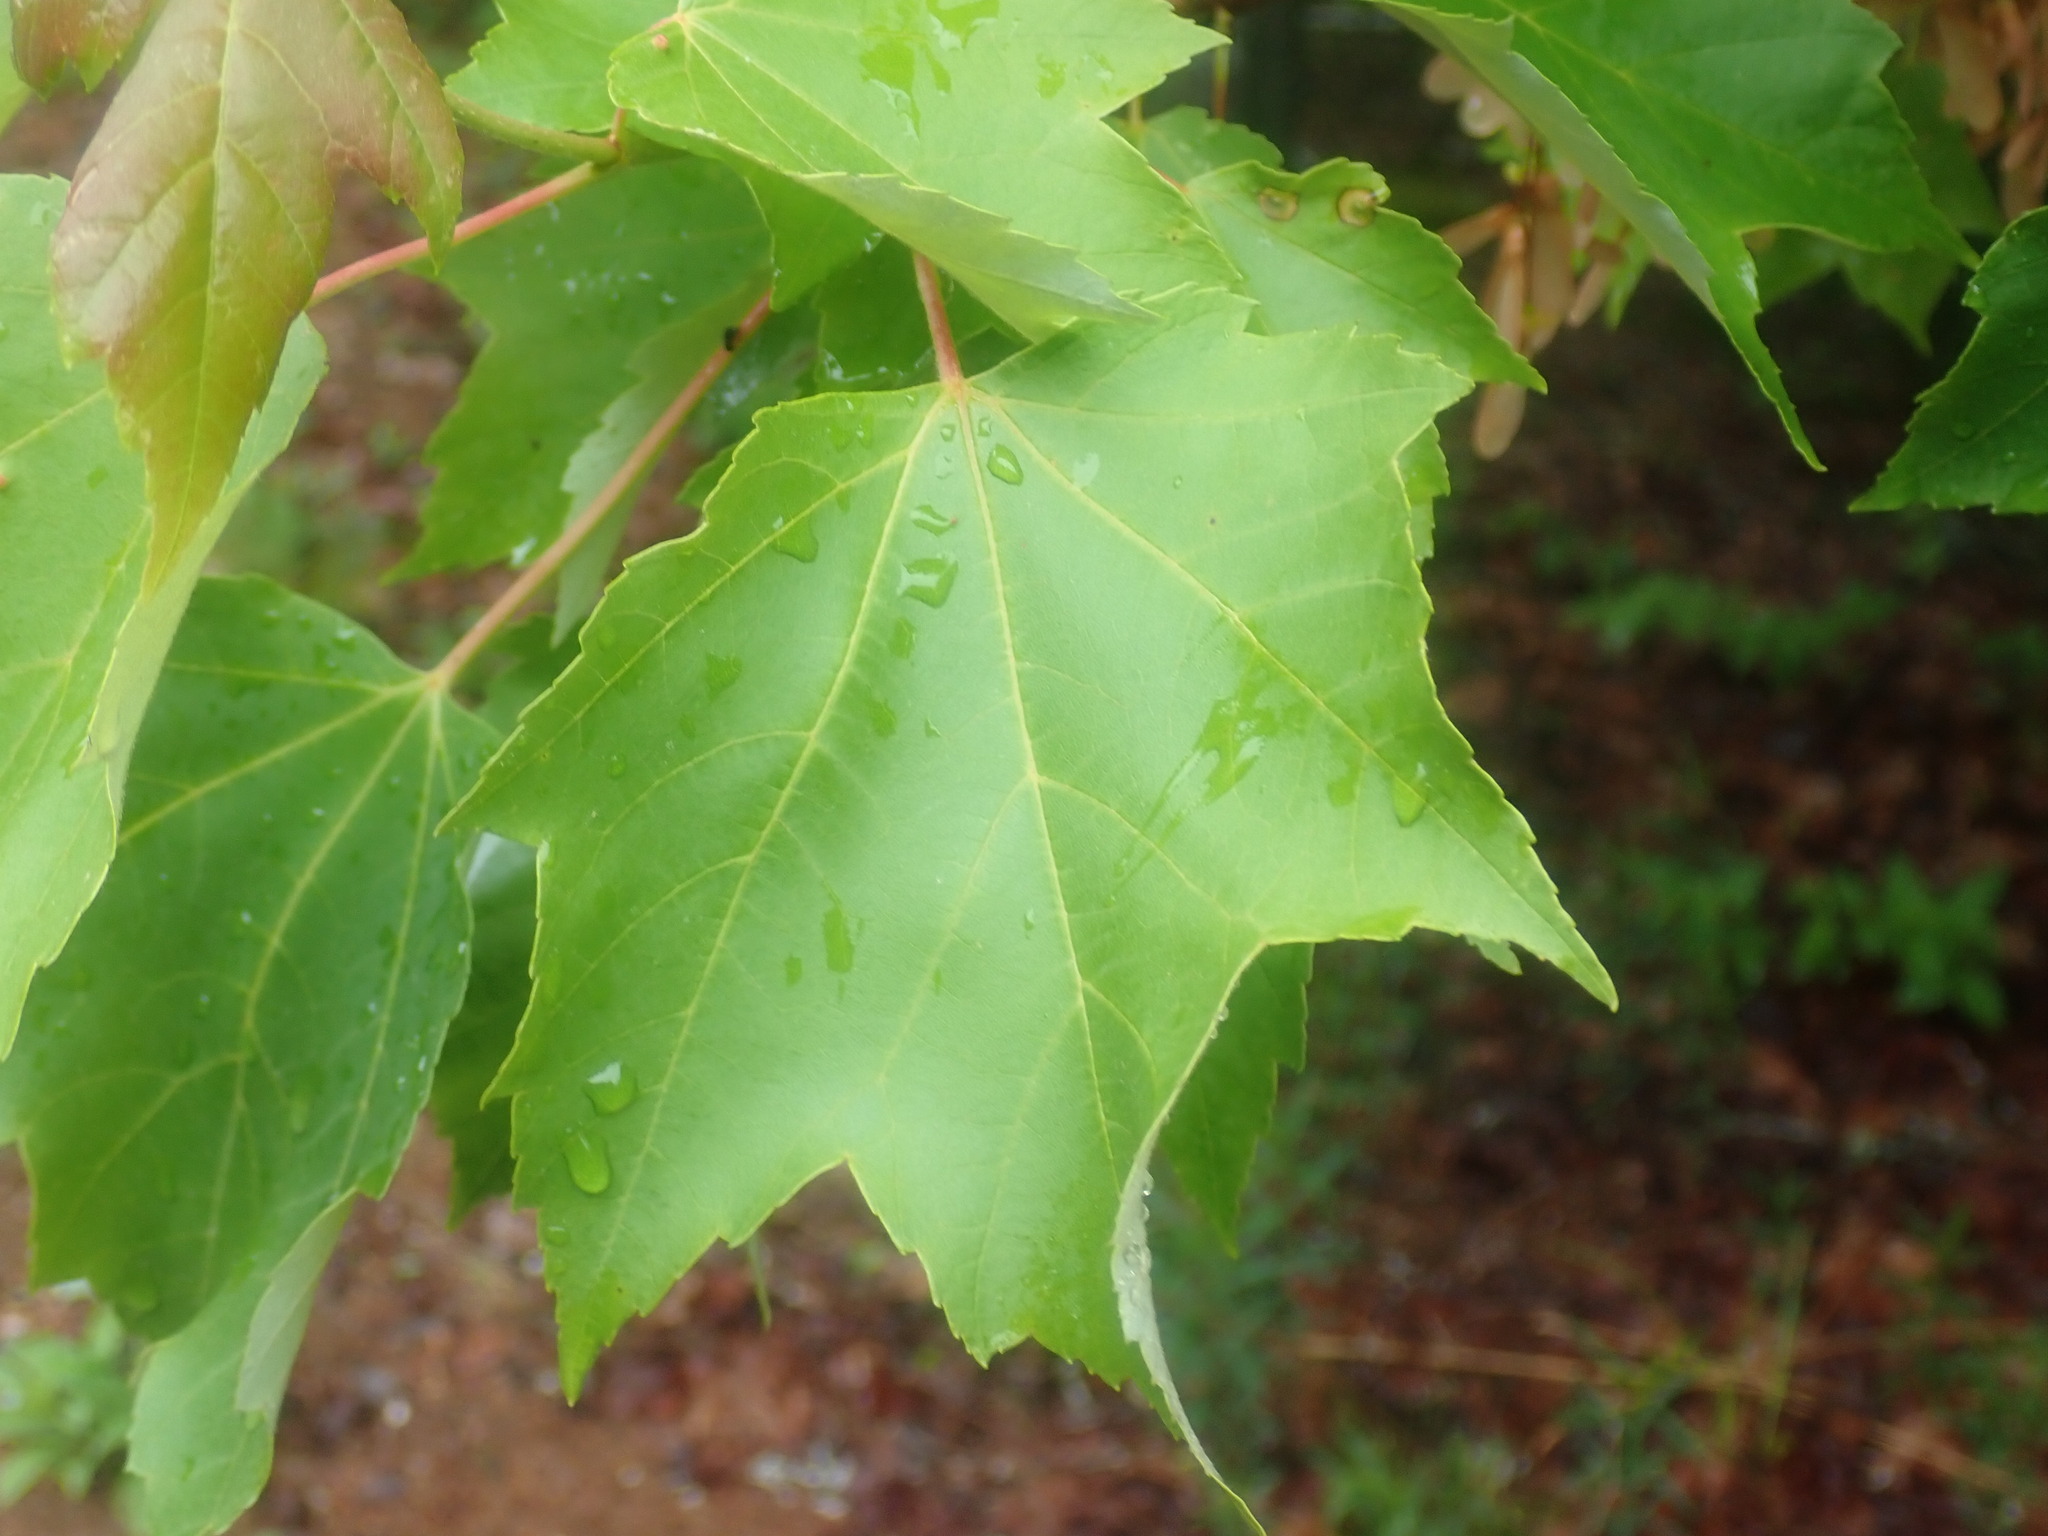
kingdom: Plantae
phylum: Tracheophyta
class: Magnoliopsida
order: Sapindales
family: Sapindaceae
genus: Acer
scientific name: Acer rubrum
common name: Red maple
